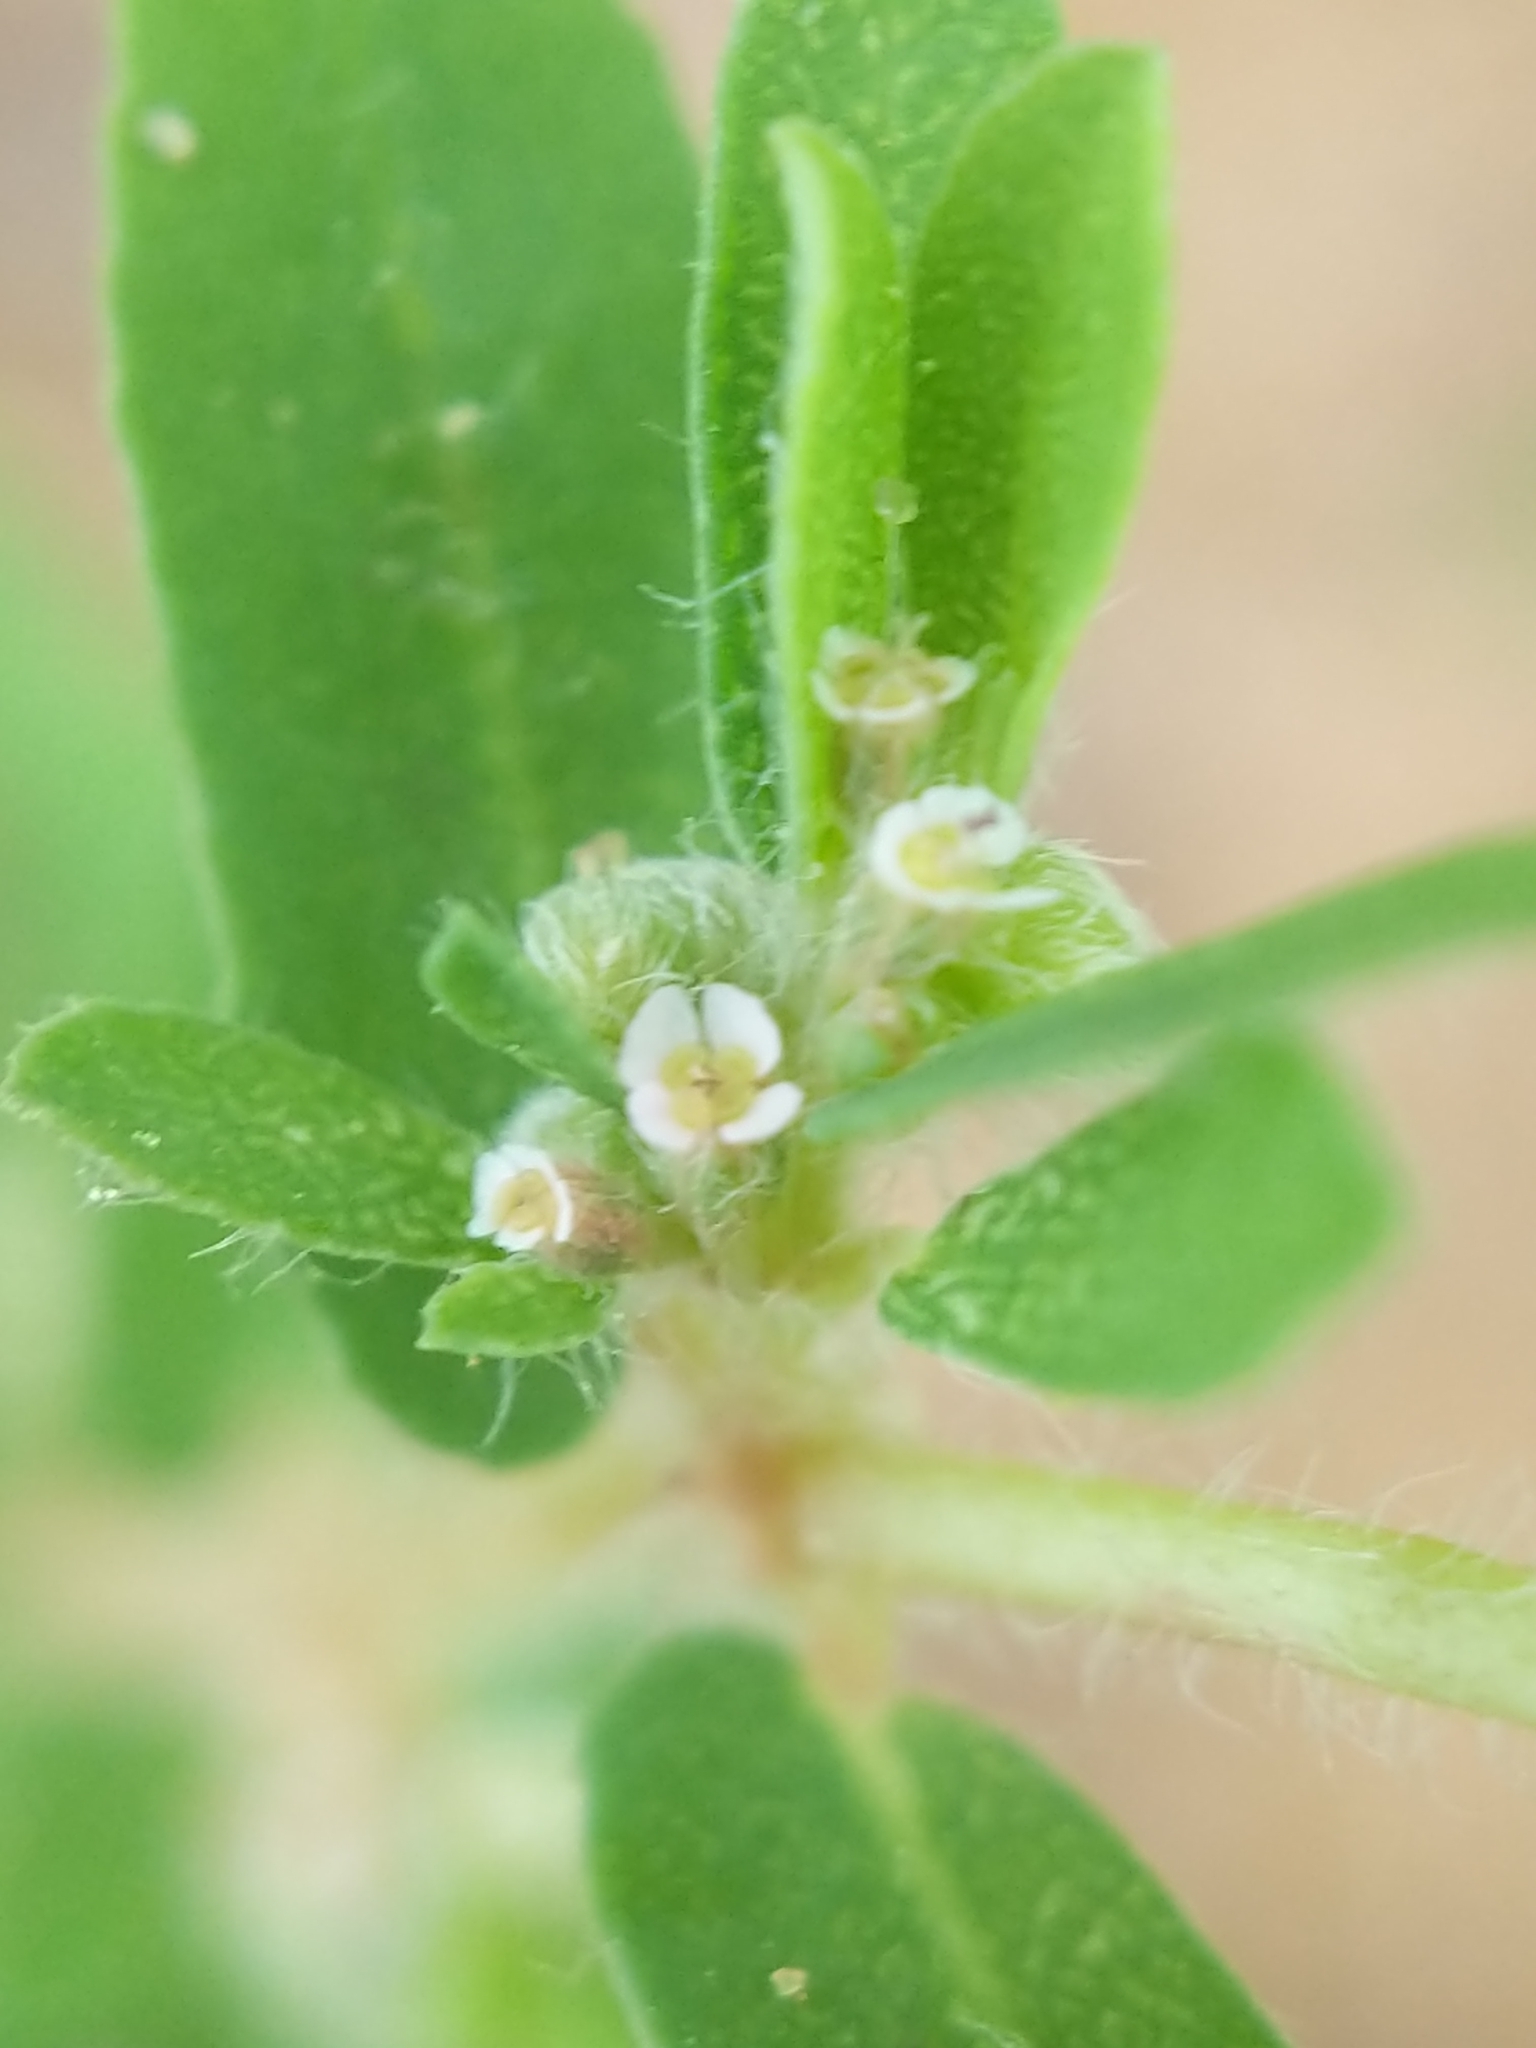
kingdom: Plantae
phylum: Tracheophyta
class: Magnoliopsida
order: Malpighiales
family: Euphorbiaceae
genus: Euphorbia
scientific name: Euphorbia maculata
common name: Spotted spurge
